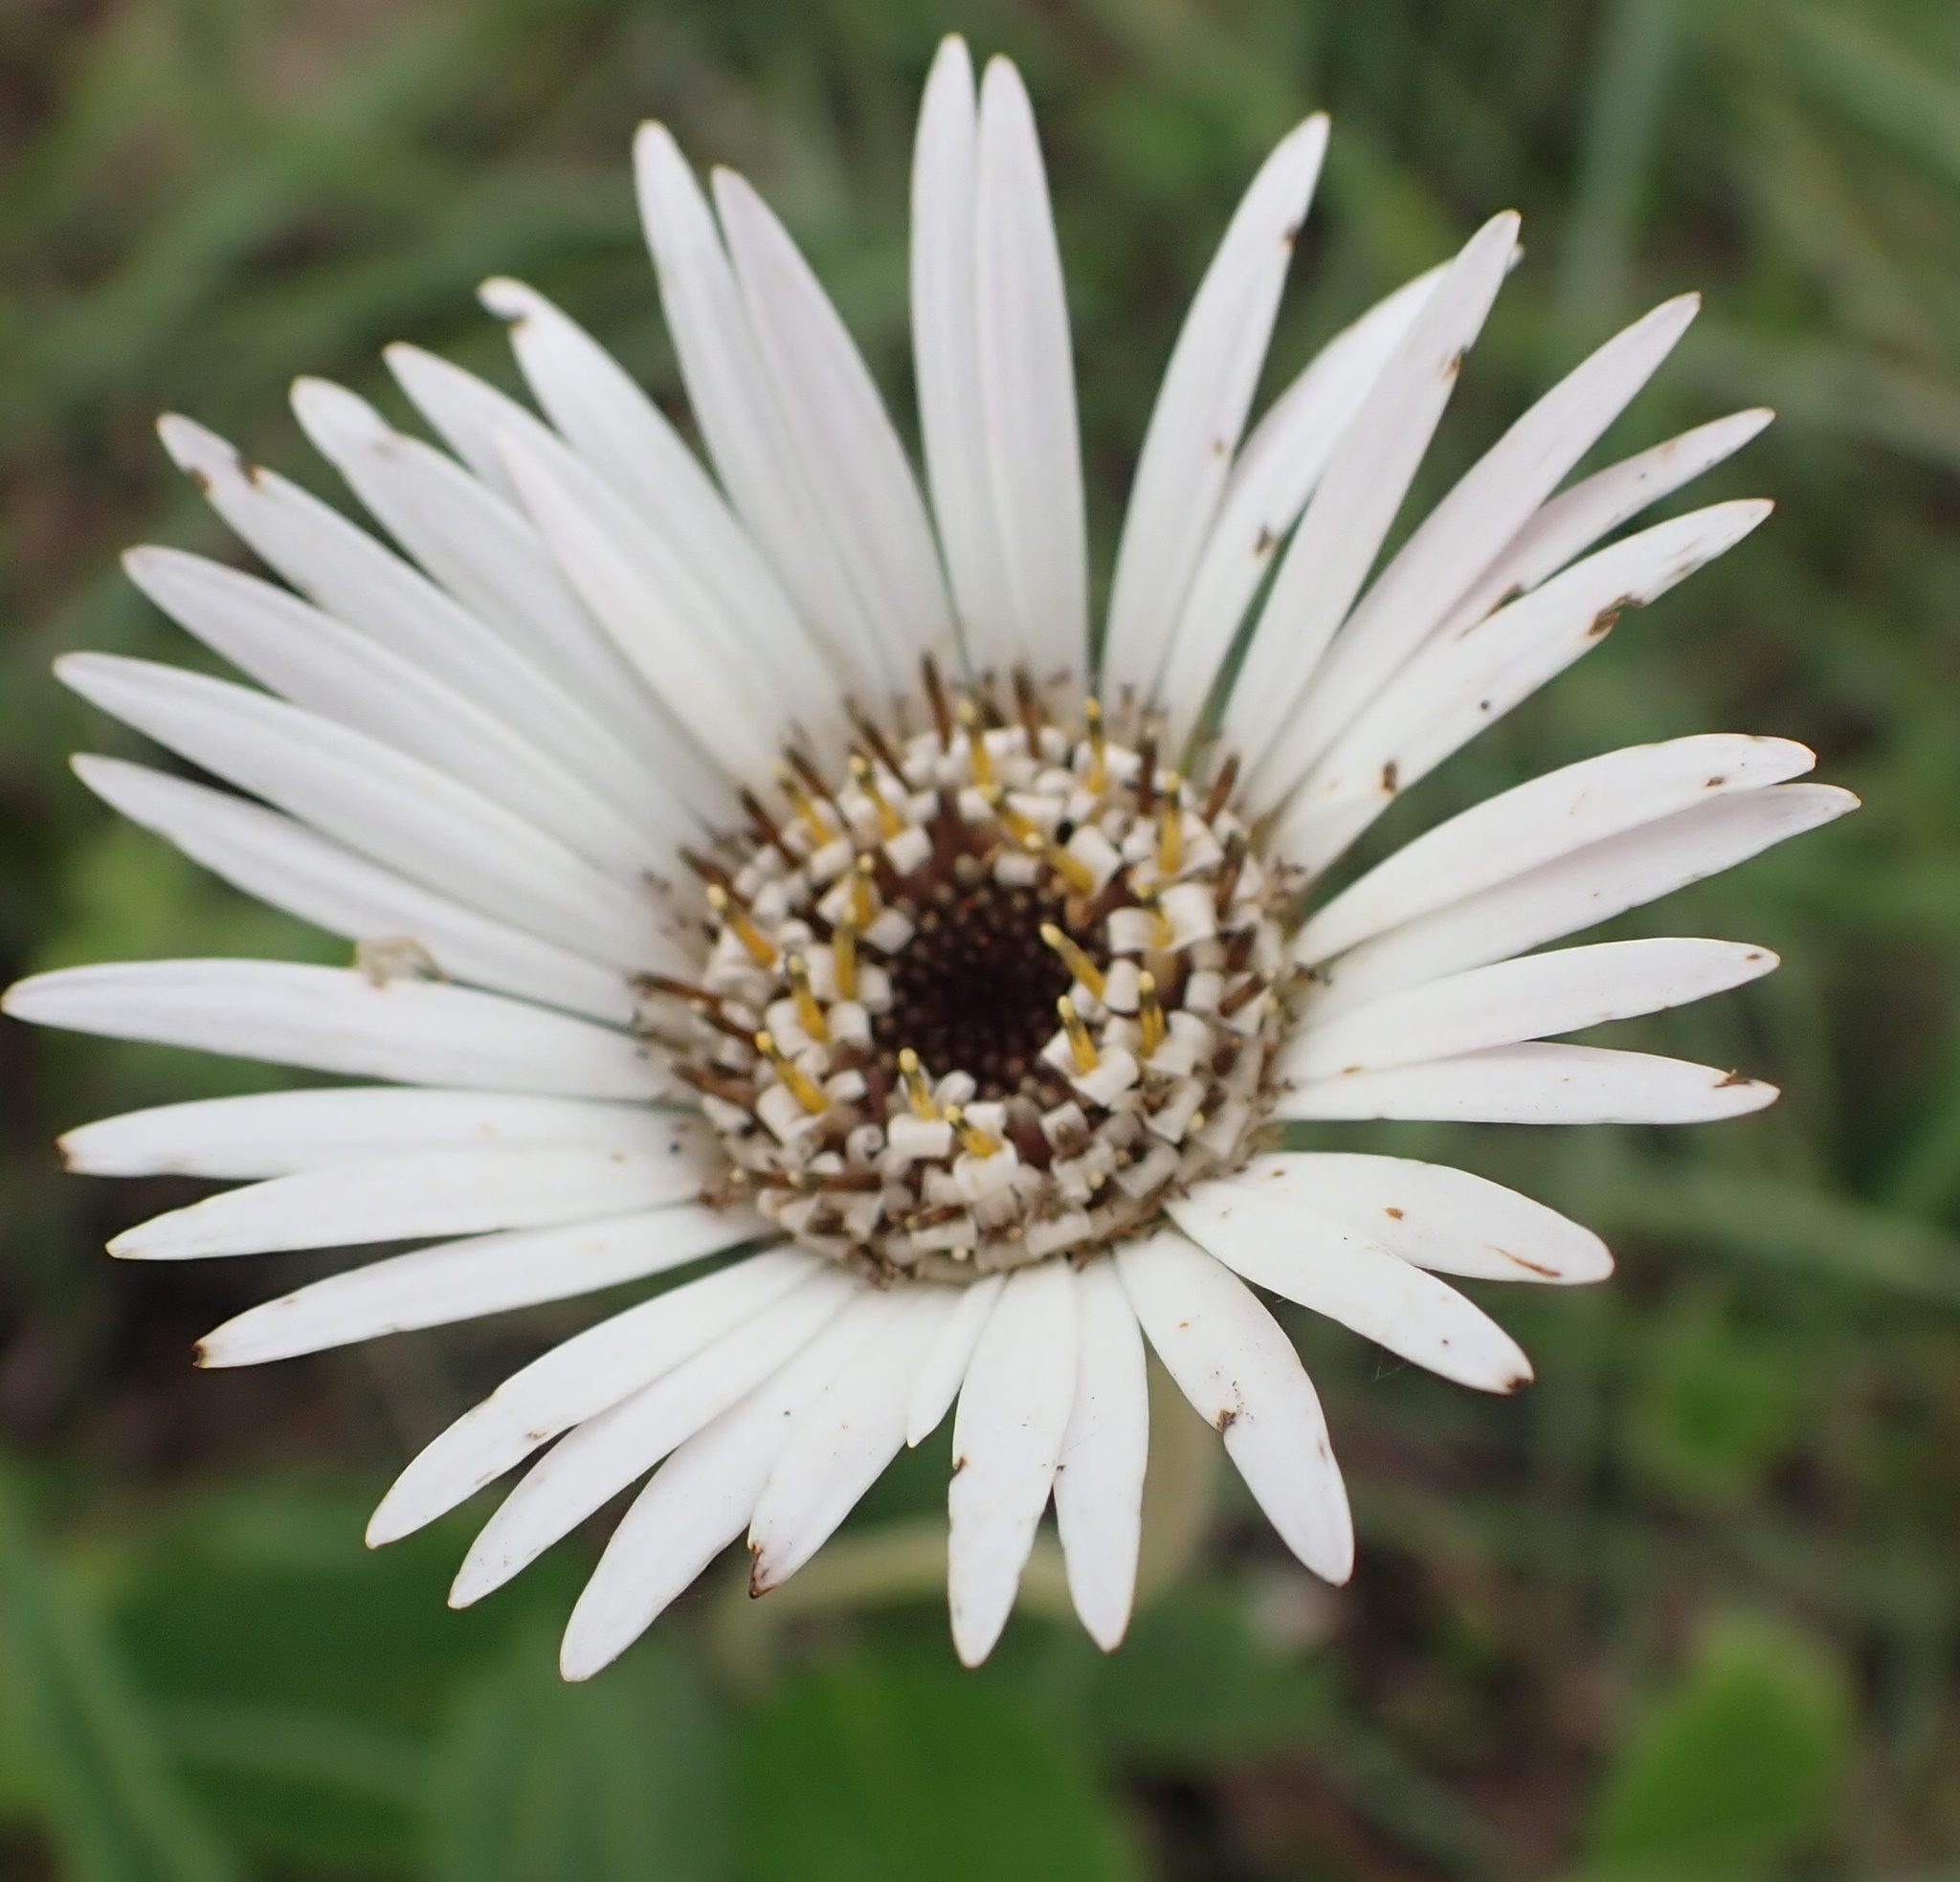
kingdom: Plantae
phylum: Tracheophyta
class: Magnoliopsida
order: Asterales
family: Asteraceae
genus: Gerbera
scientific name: Gerbera ambigua
